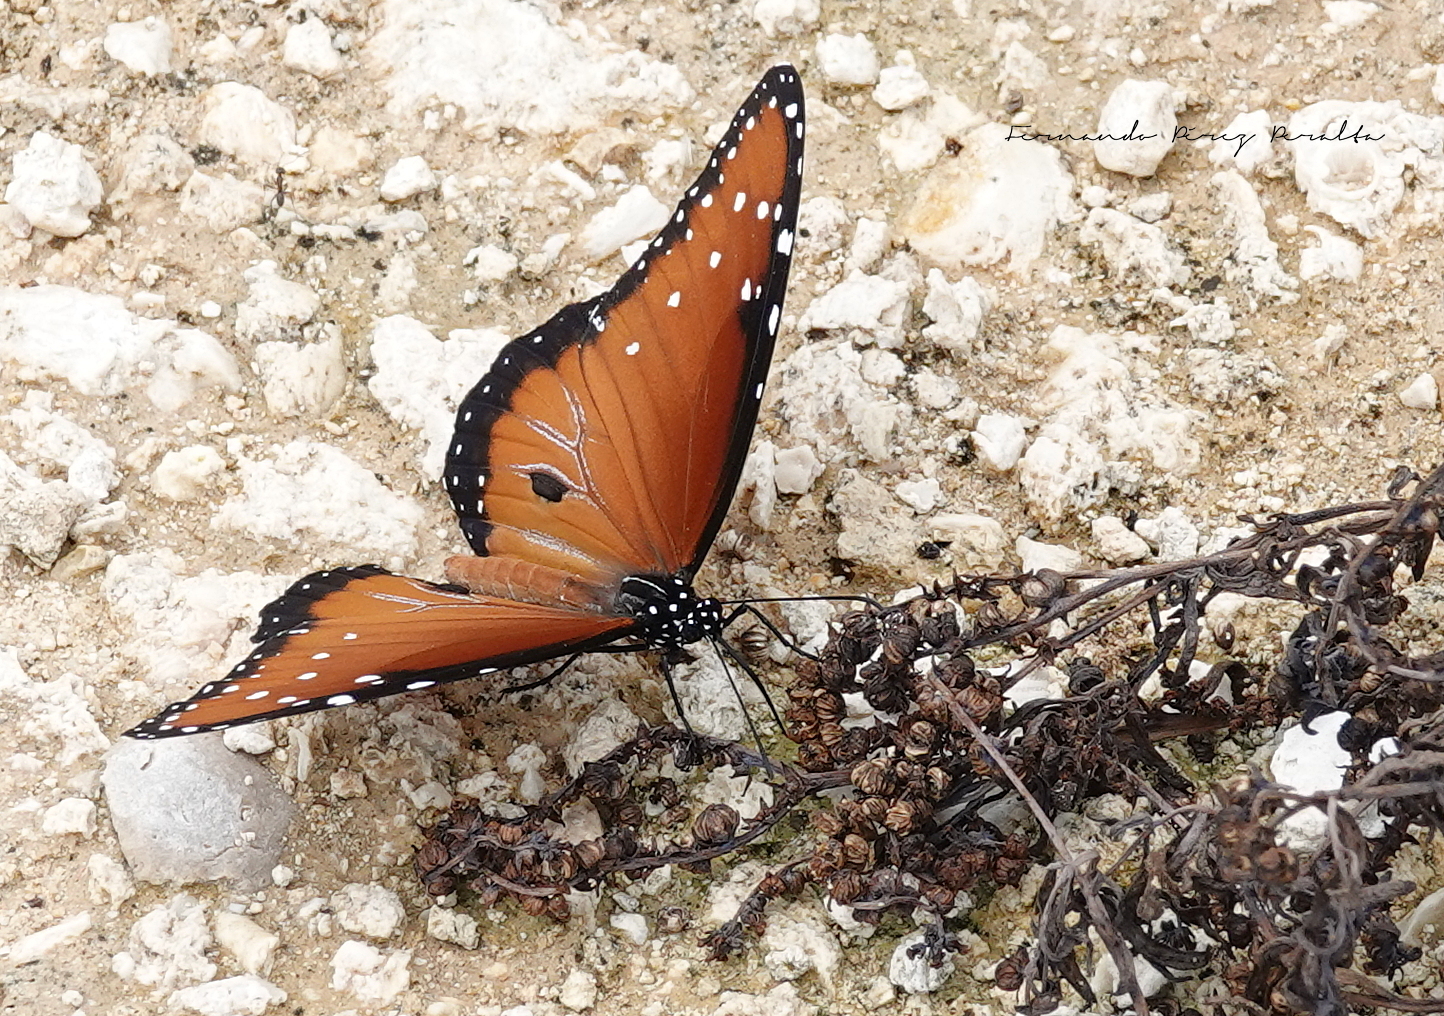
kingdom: Animalia
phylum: Arthropoda
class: Insecta
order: Lepidoptera
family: Nymphalidae
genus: Danaus
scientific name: Danaus gilippus
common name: Queen
